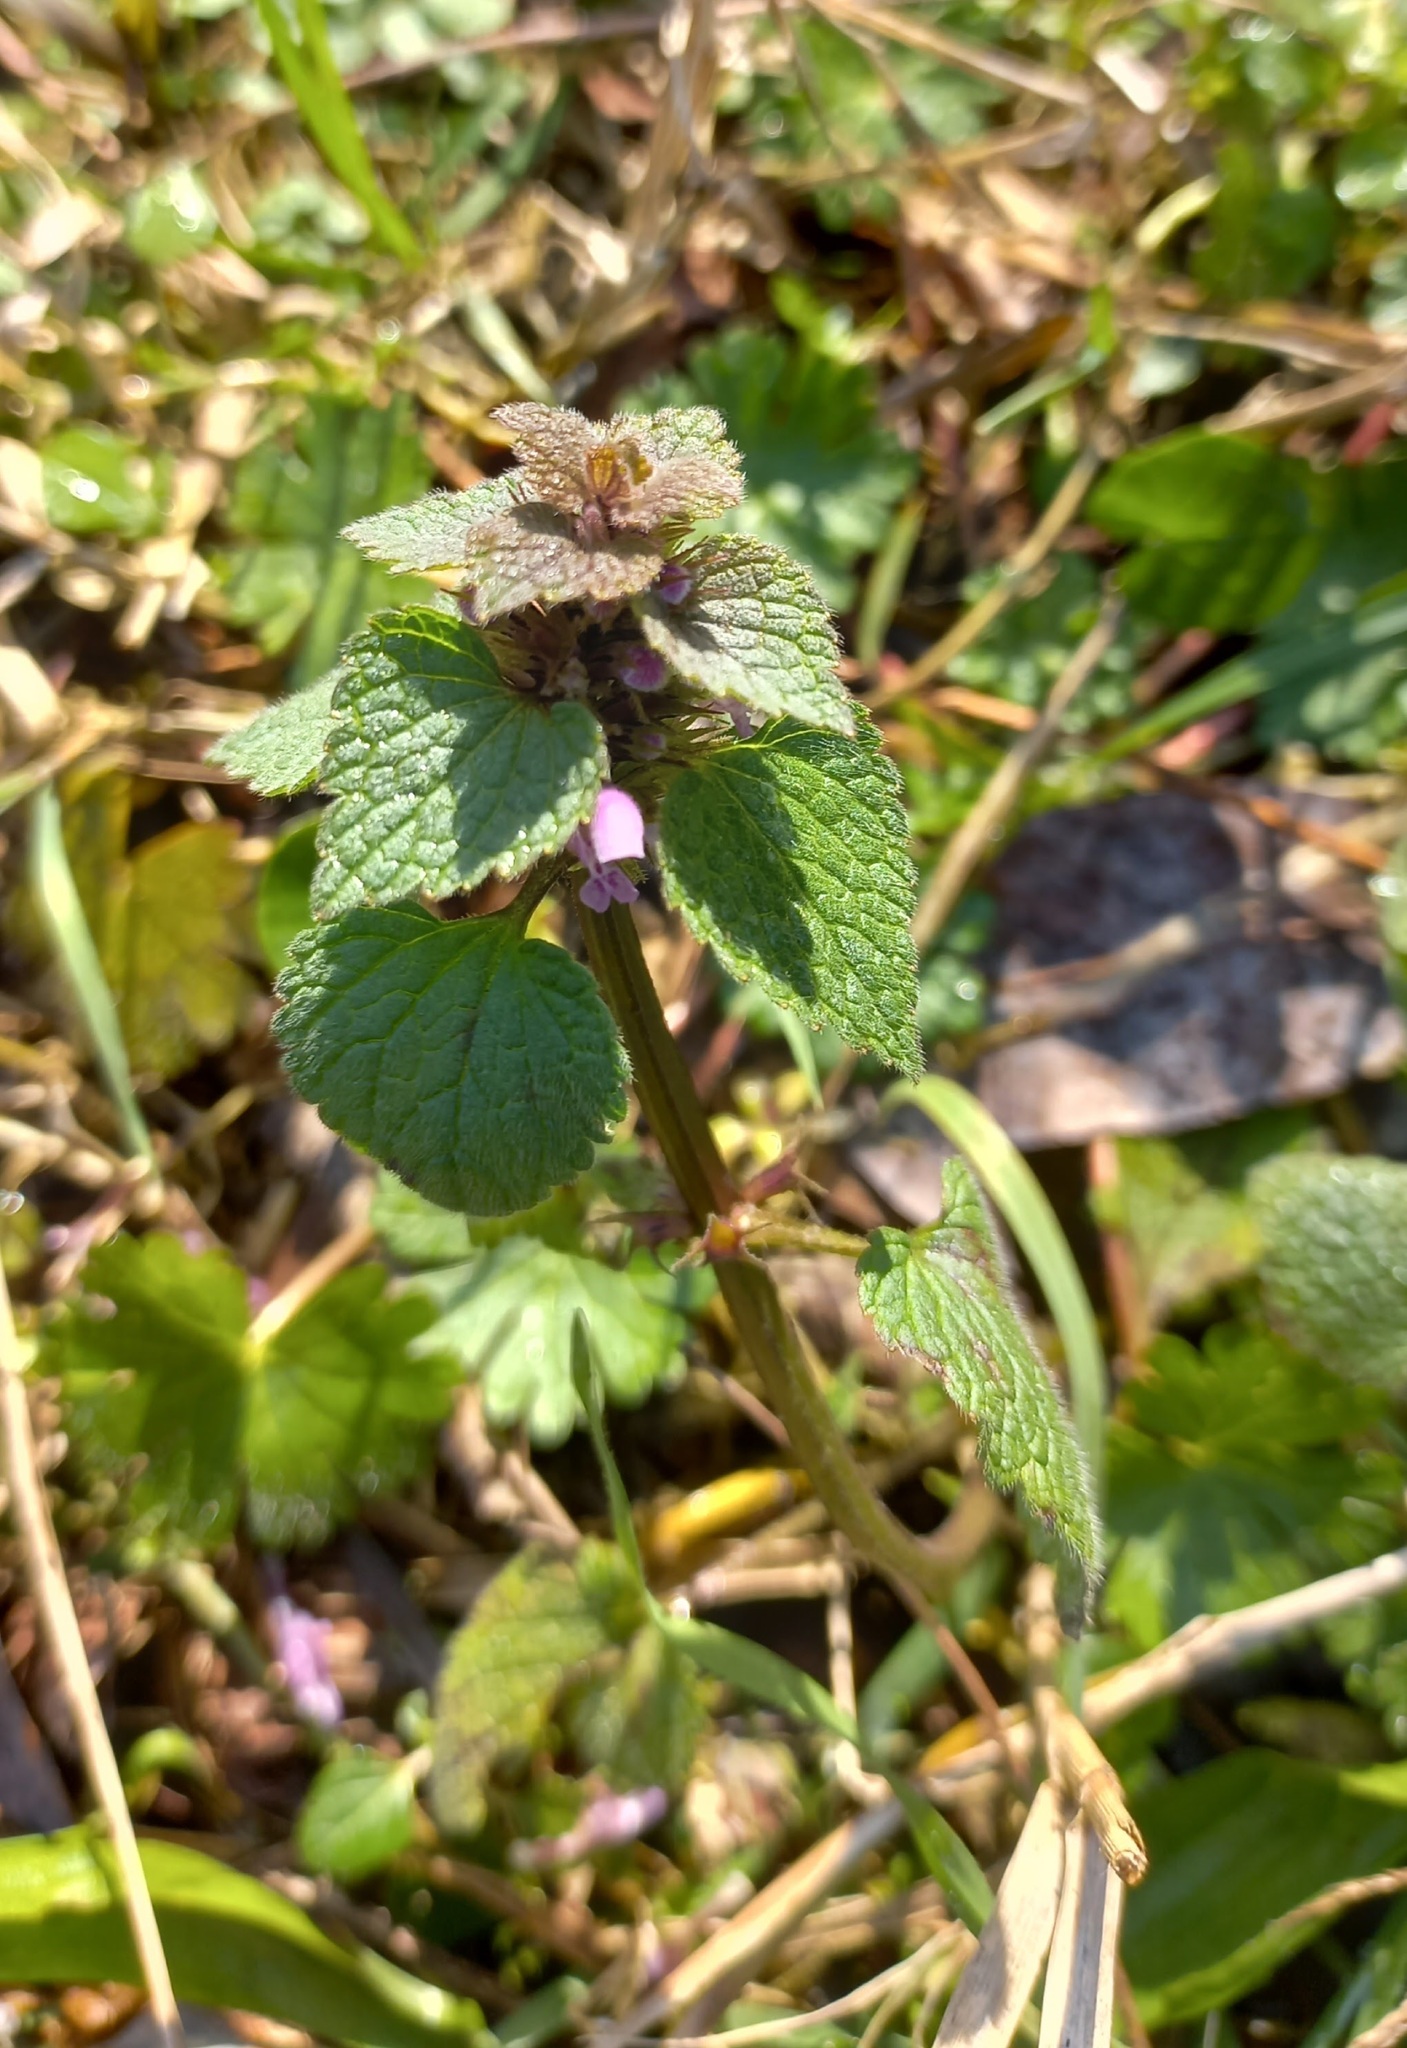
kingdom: Plantae
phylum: Tracheophyta
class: Magnoliopsida
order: Lamiales
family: Lamiaceae
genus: Lamium
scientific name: Lamium purpureum
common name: Red dead-nettle
